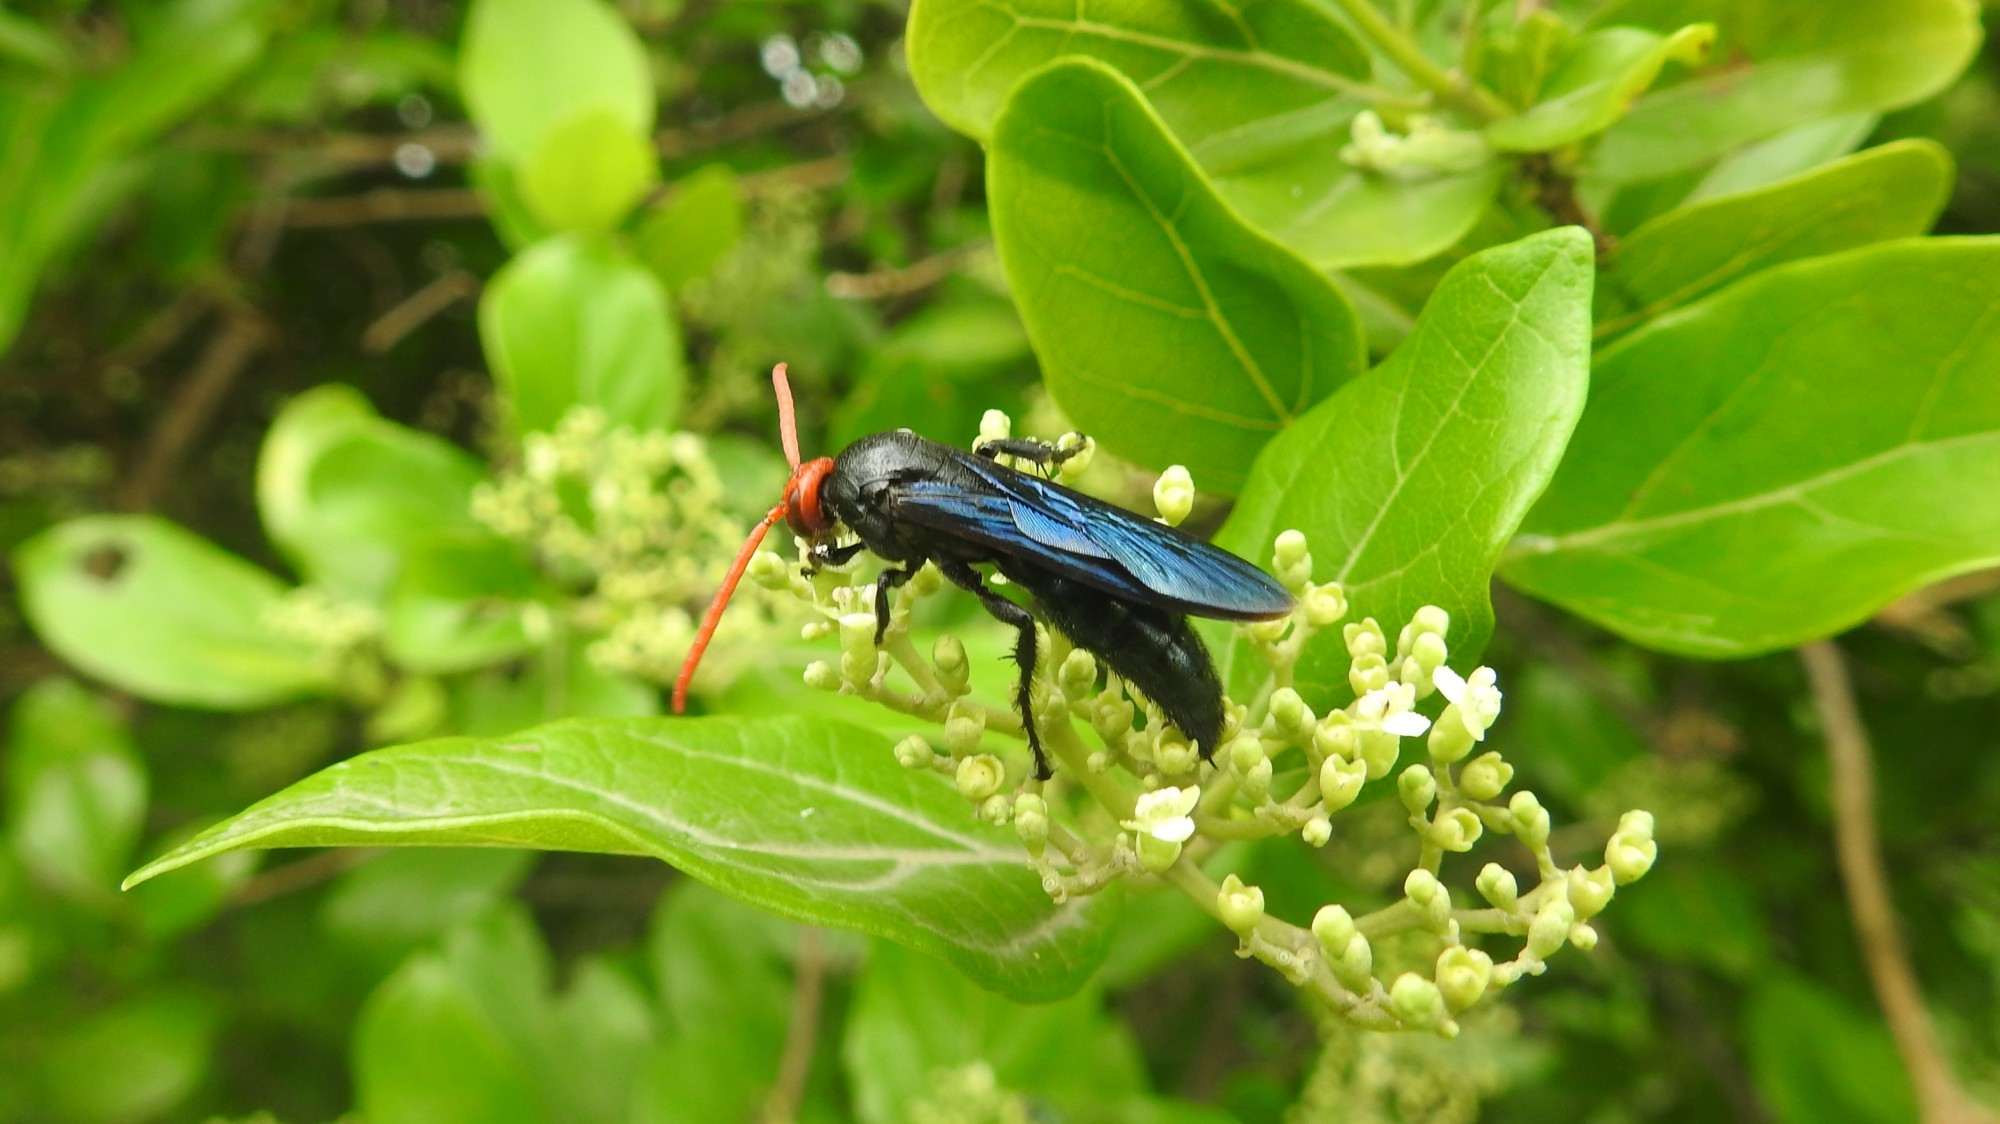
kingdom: Animalia
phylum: Arthropoda
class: Insecta
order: Hymenoptera
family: Scoliidae
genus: Scolia
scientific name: Scolia
